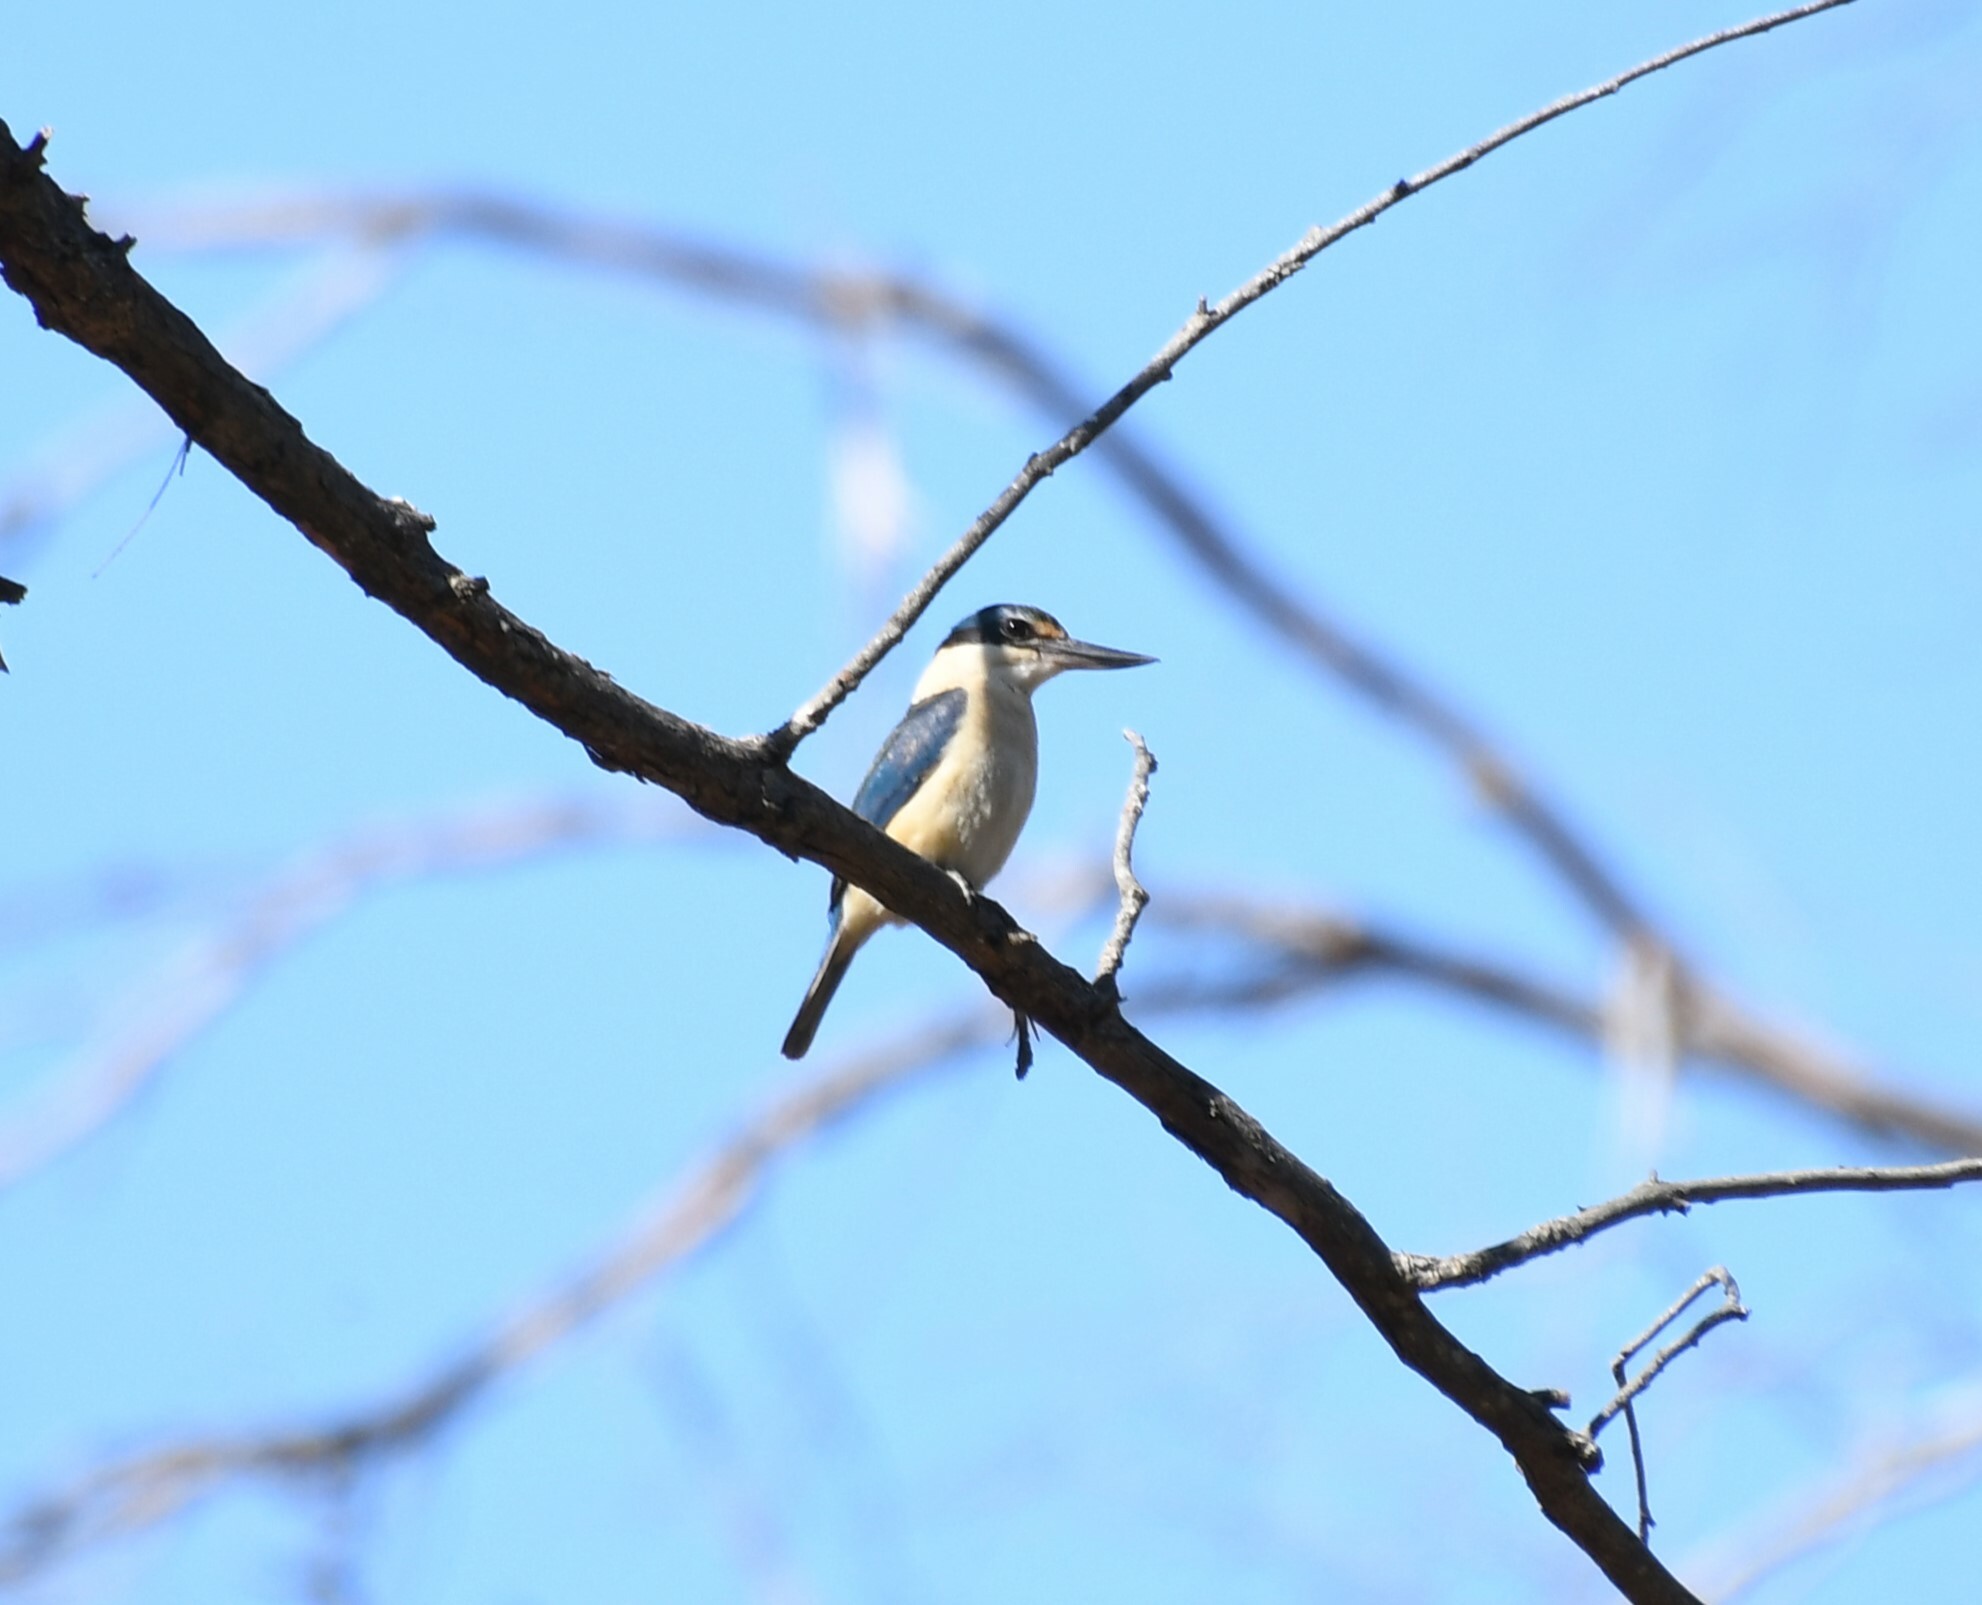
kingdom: Animalia
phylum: Chordata
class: Aves
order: Coraciiformes
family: Alcedinidae
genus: Todiramphus
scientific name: Todiramphus sanctus
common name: Sacred kingfisher
